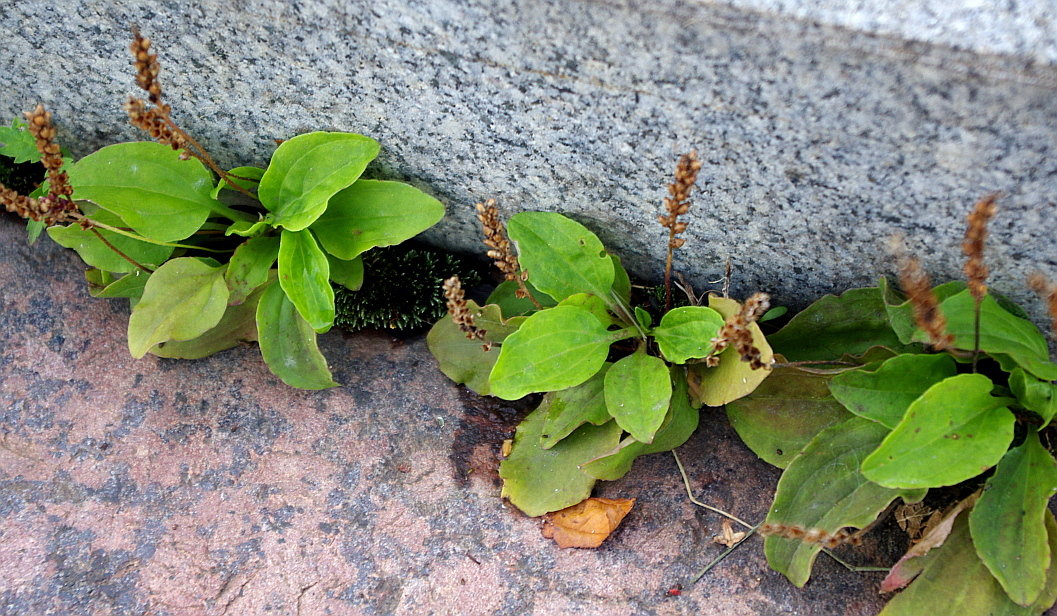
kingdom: Plantae
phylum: Tracheophyta
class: Magnoliopsida
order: Lamiales
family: Plantaginaceae
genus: Plantago
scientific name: Plantago uliginosa
